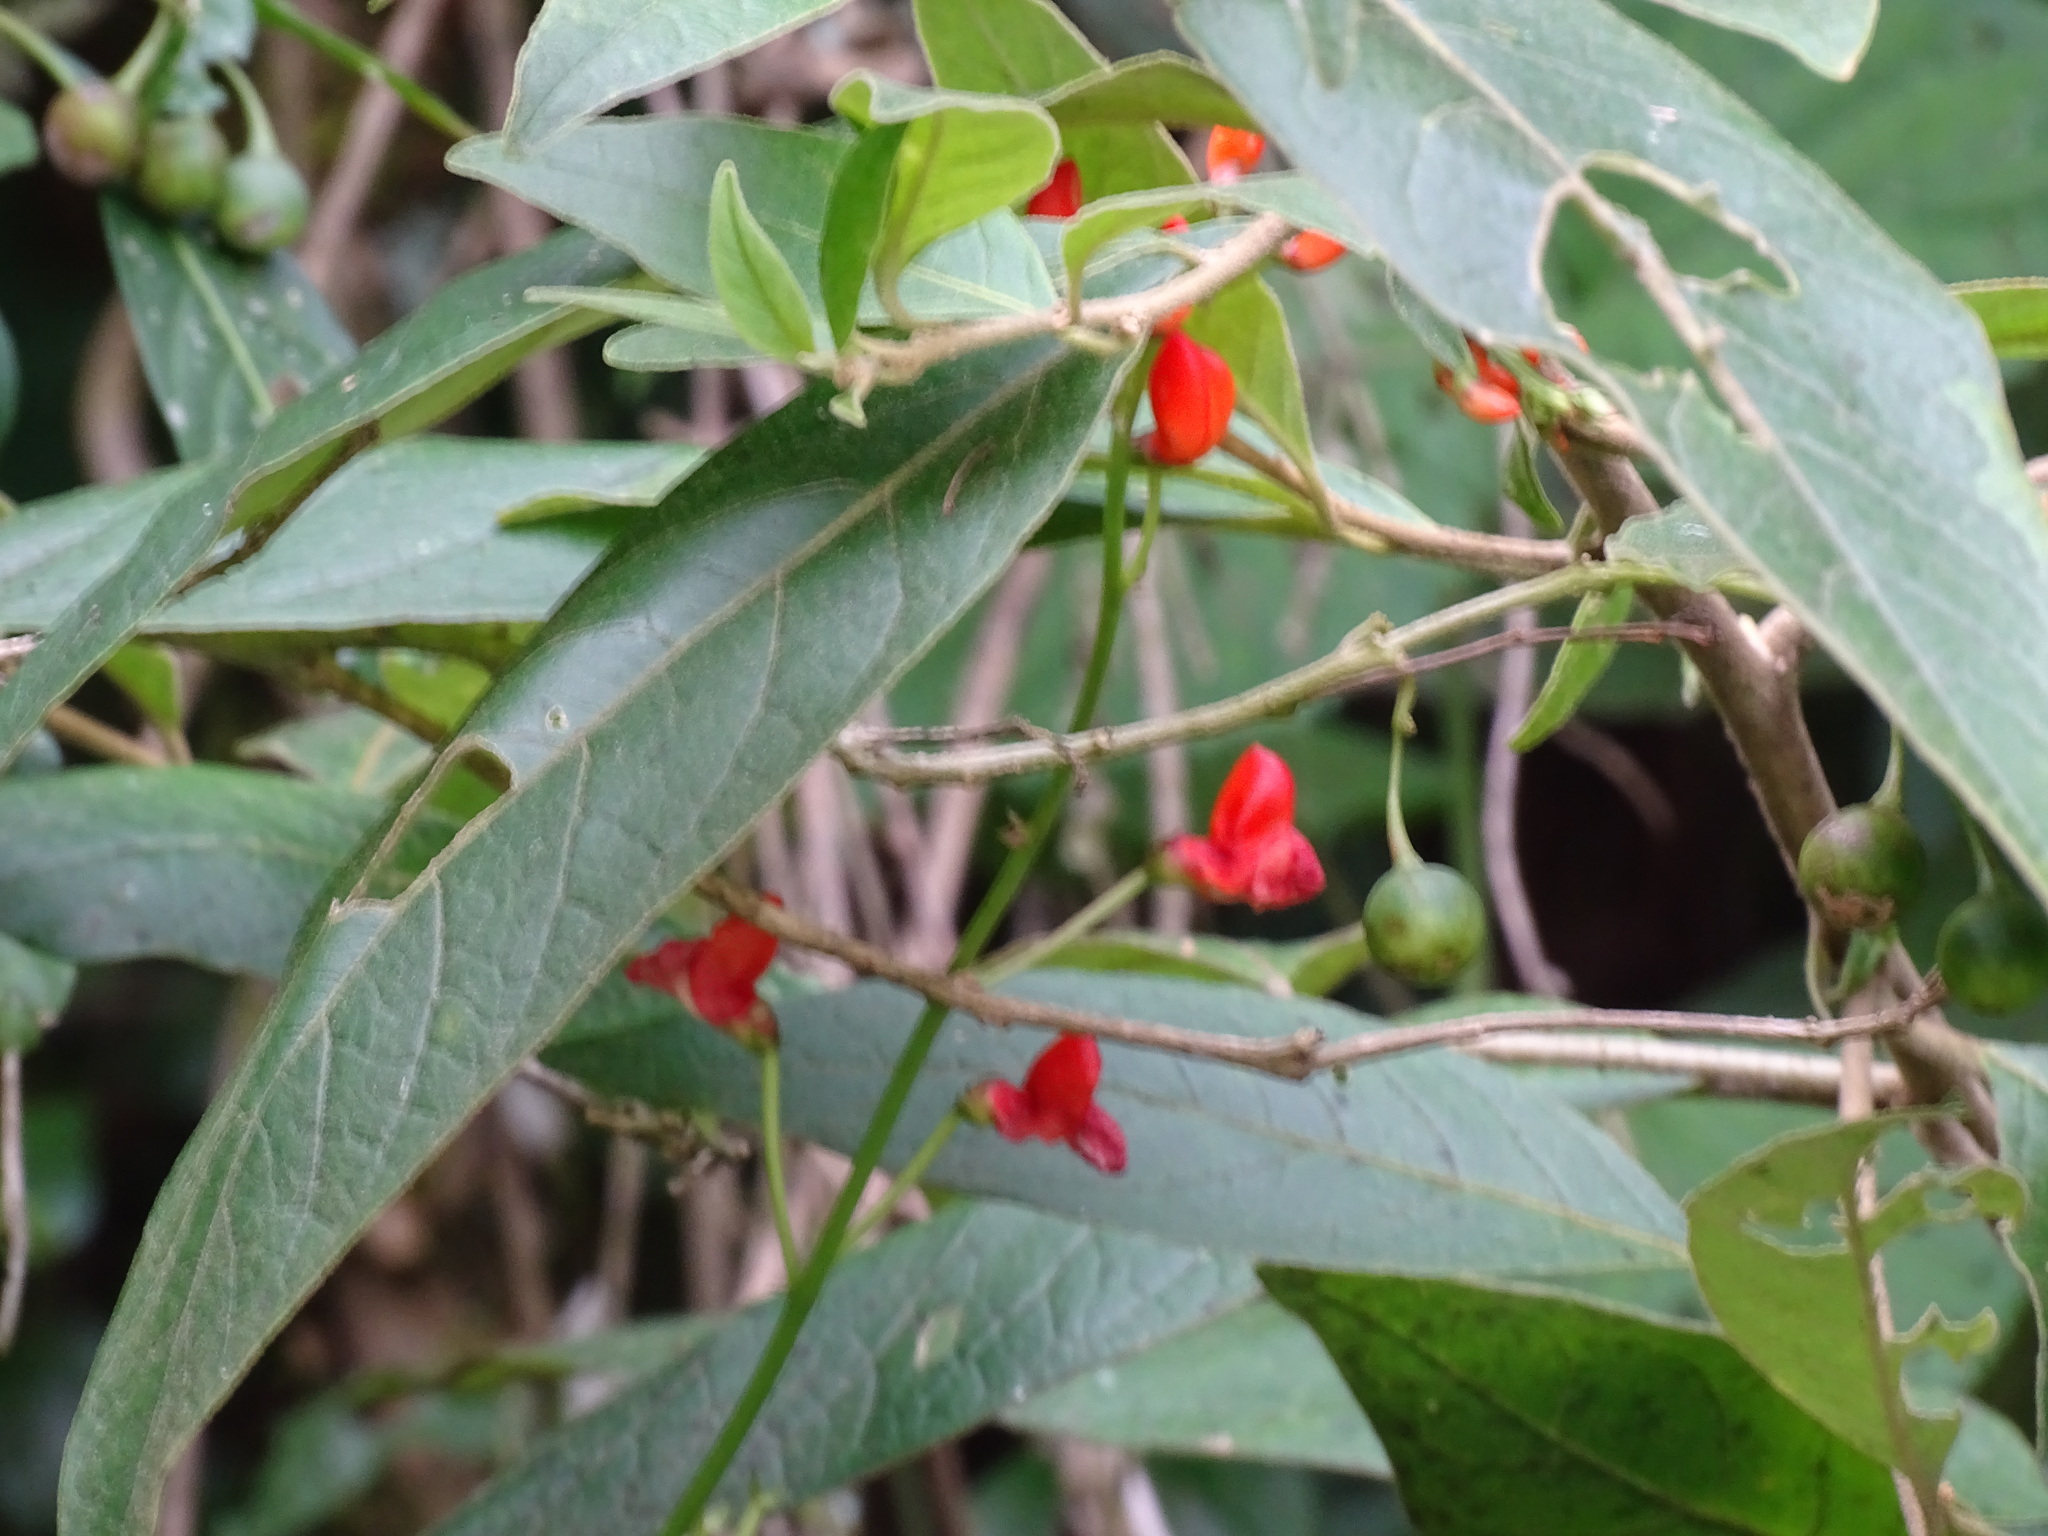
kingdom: Plantae
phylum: Tracheophyta
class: Magnoliopsida
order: Fabales
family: Fabaceae
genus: Phaseolus
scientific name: Phaseolus coccineus
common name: Runner bean
